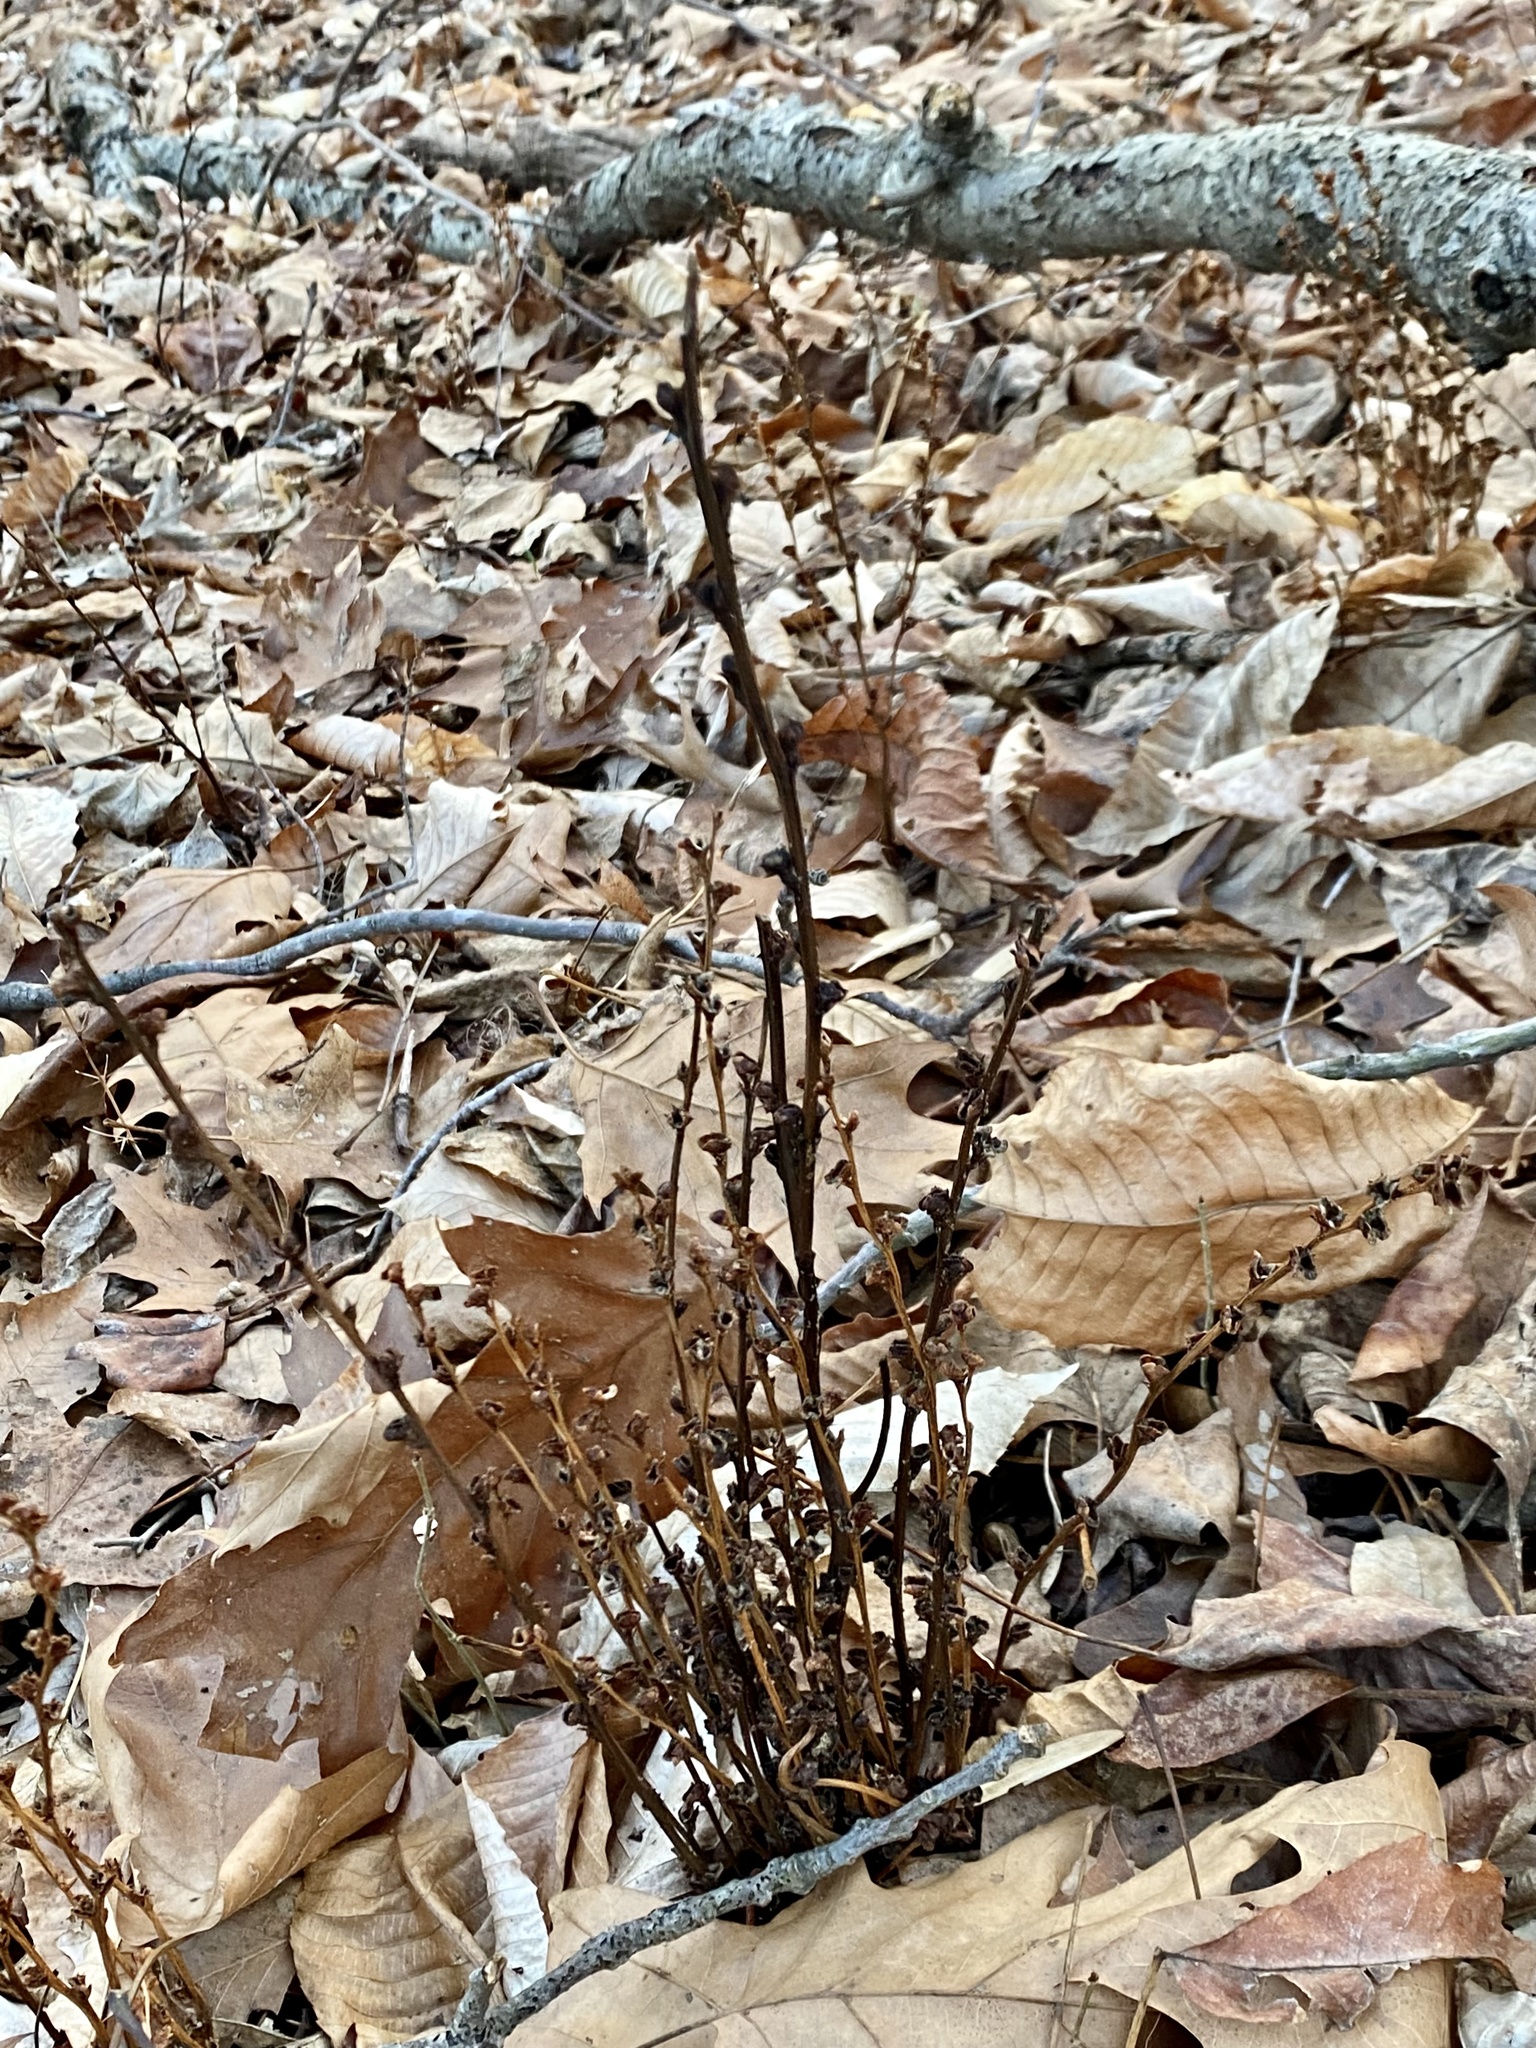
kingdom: Plantae
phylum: Tracheophyta
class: Magnoliopsida
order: Lamiales
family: Orobanchaceae
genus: Epifagus
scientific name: Epifagus virginiana
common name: Beechdrops
